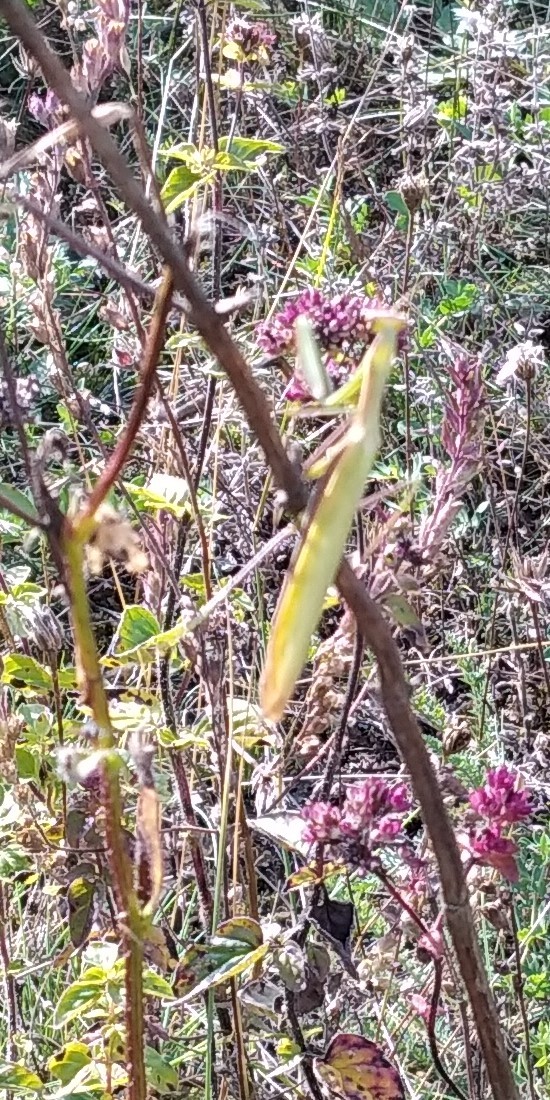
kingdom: Animalia
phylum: Arthropoda
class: Insecta
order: Mantodea
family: Mantidae
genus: Mantis
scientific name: Mantis religiosa
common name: Praying mantis
